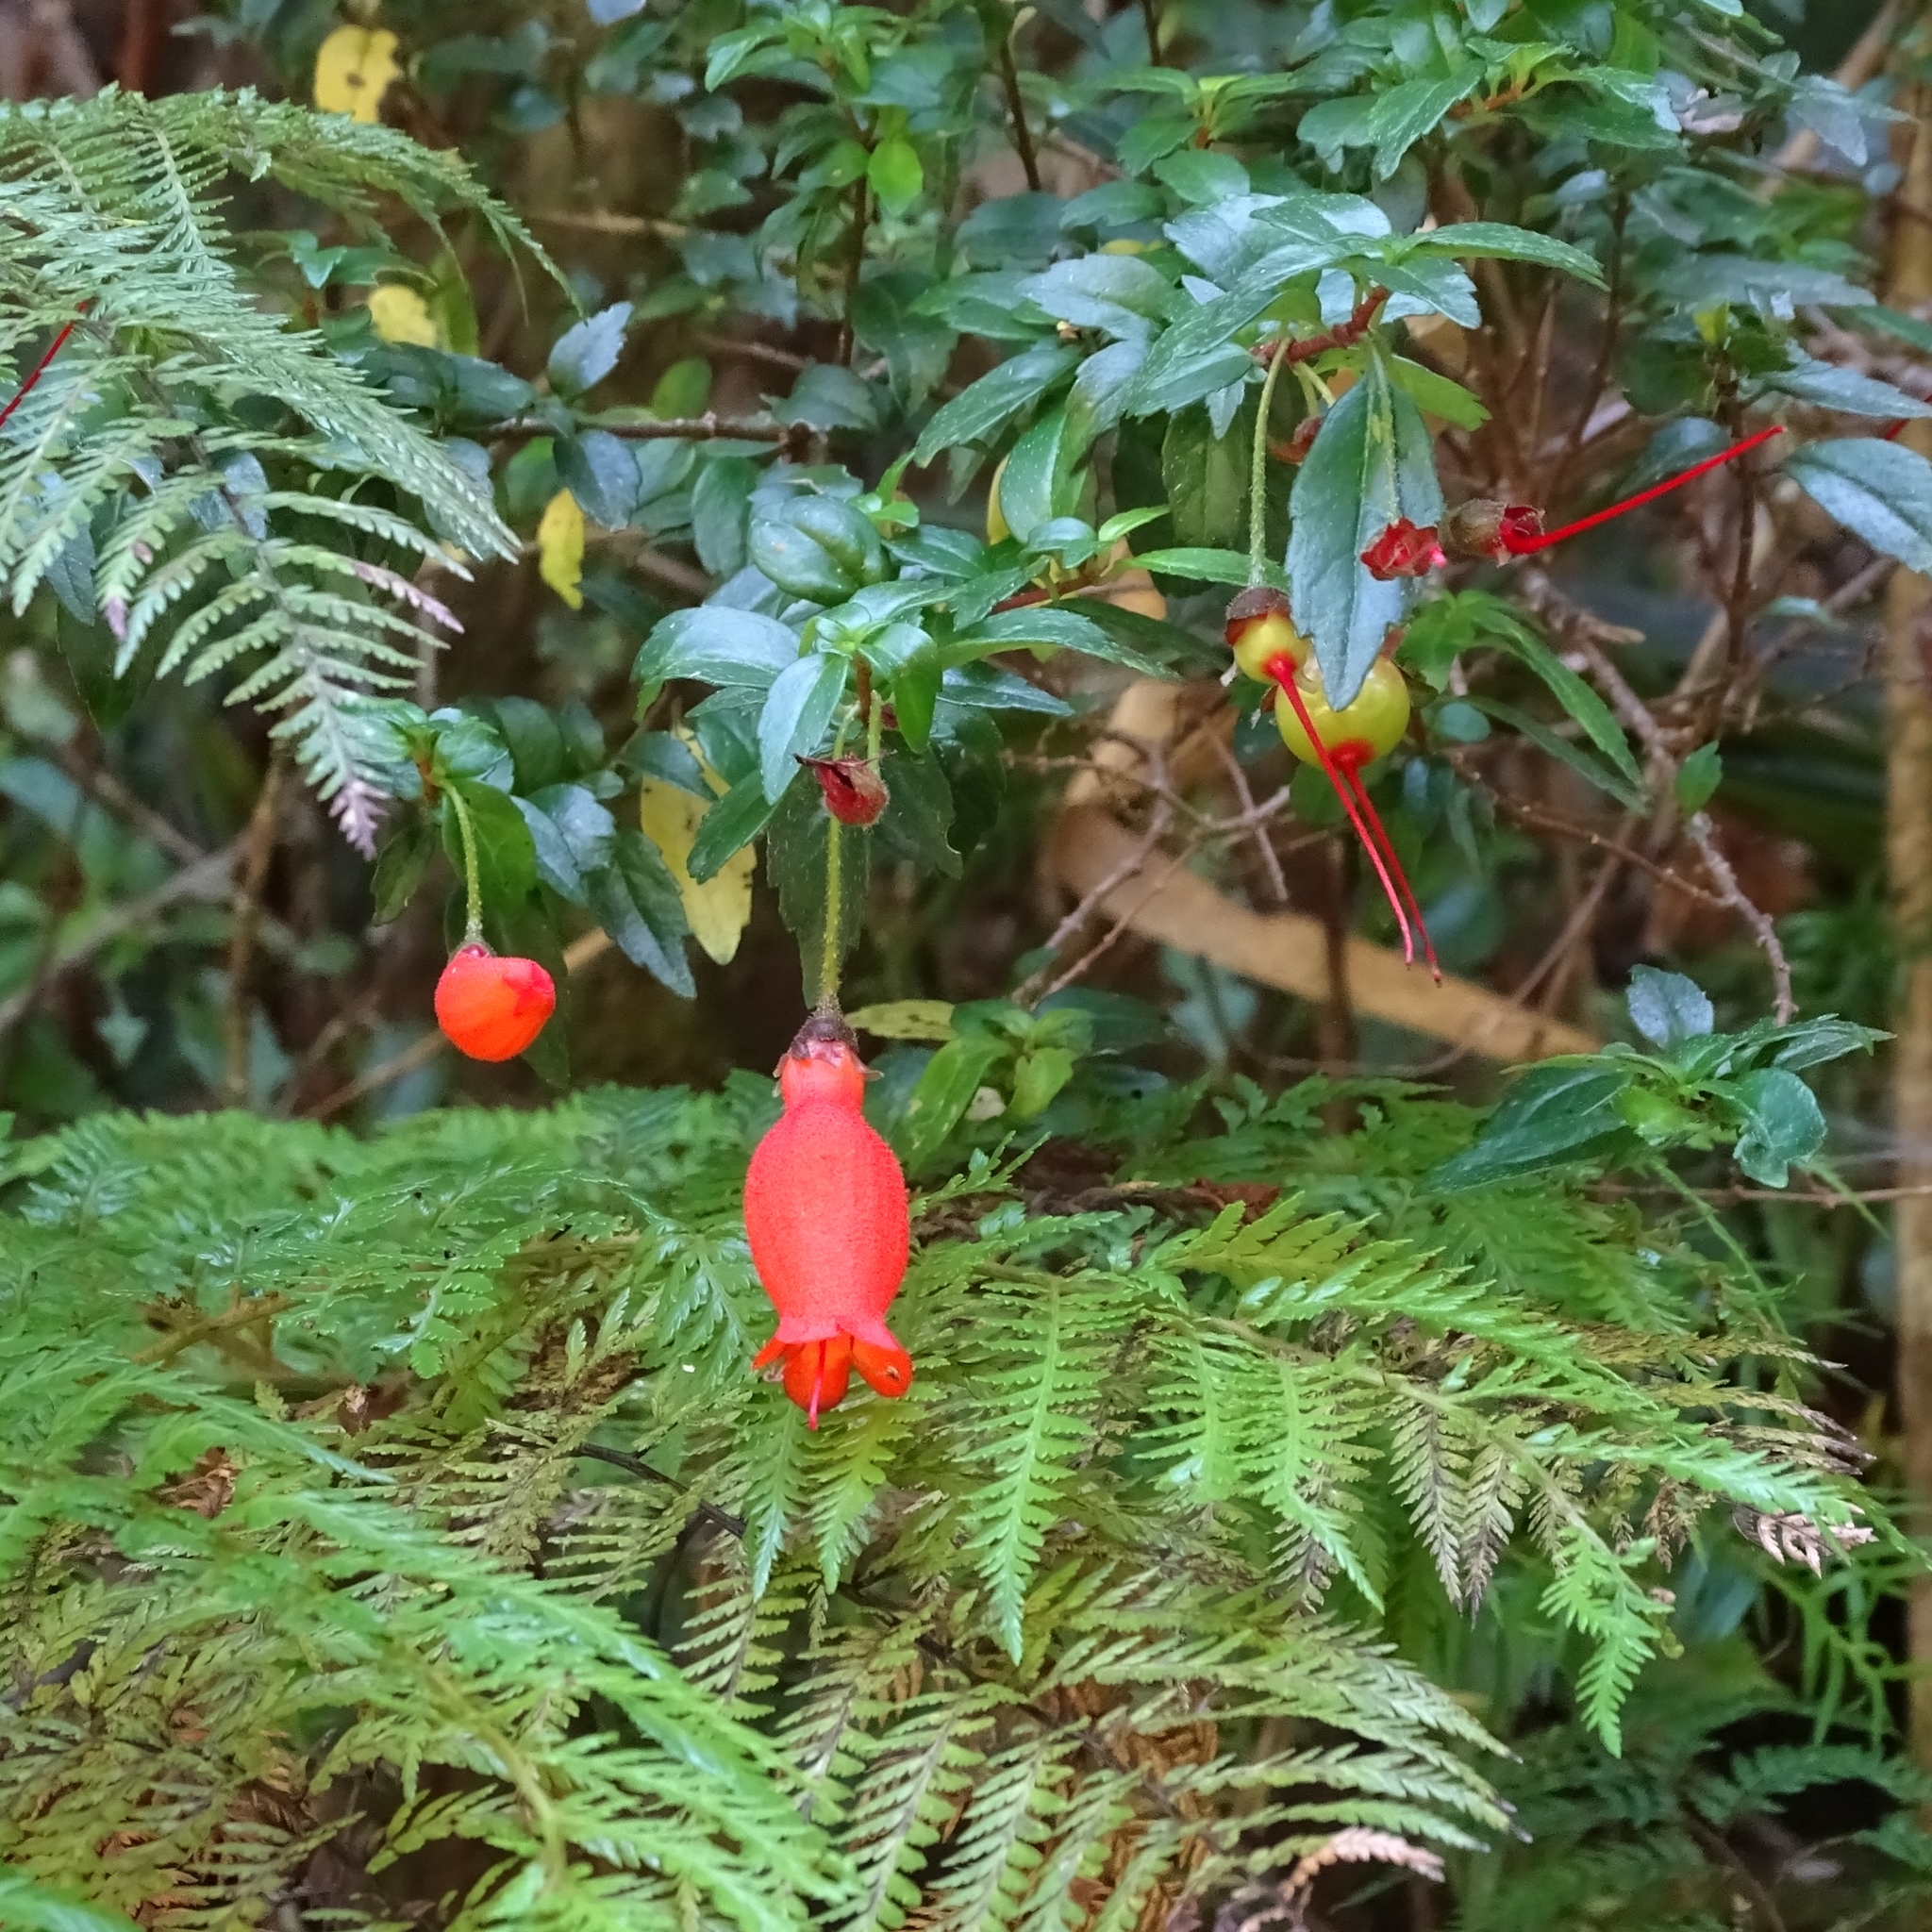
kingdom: Plantae
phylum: Tracheophyta
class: Magnoliopsida
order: Lamiales
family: Gesneriaceae
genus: Mitraria
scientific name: Mitraria coccinea
